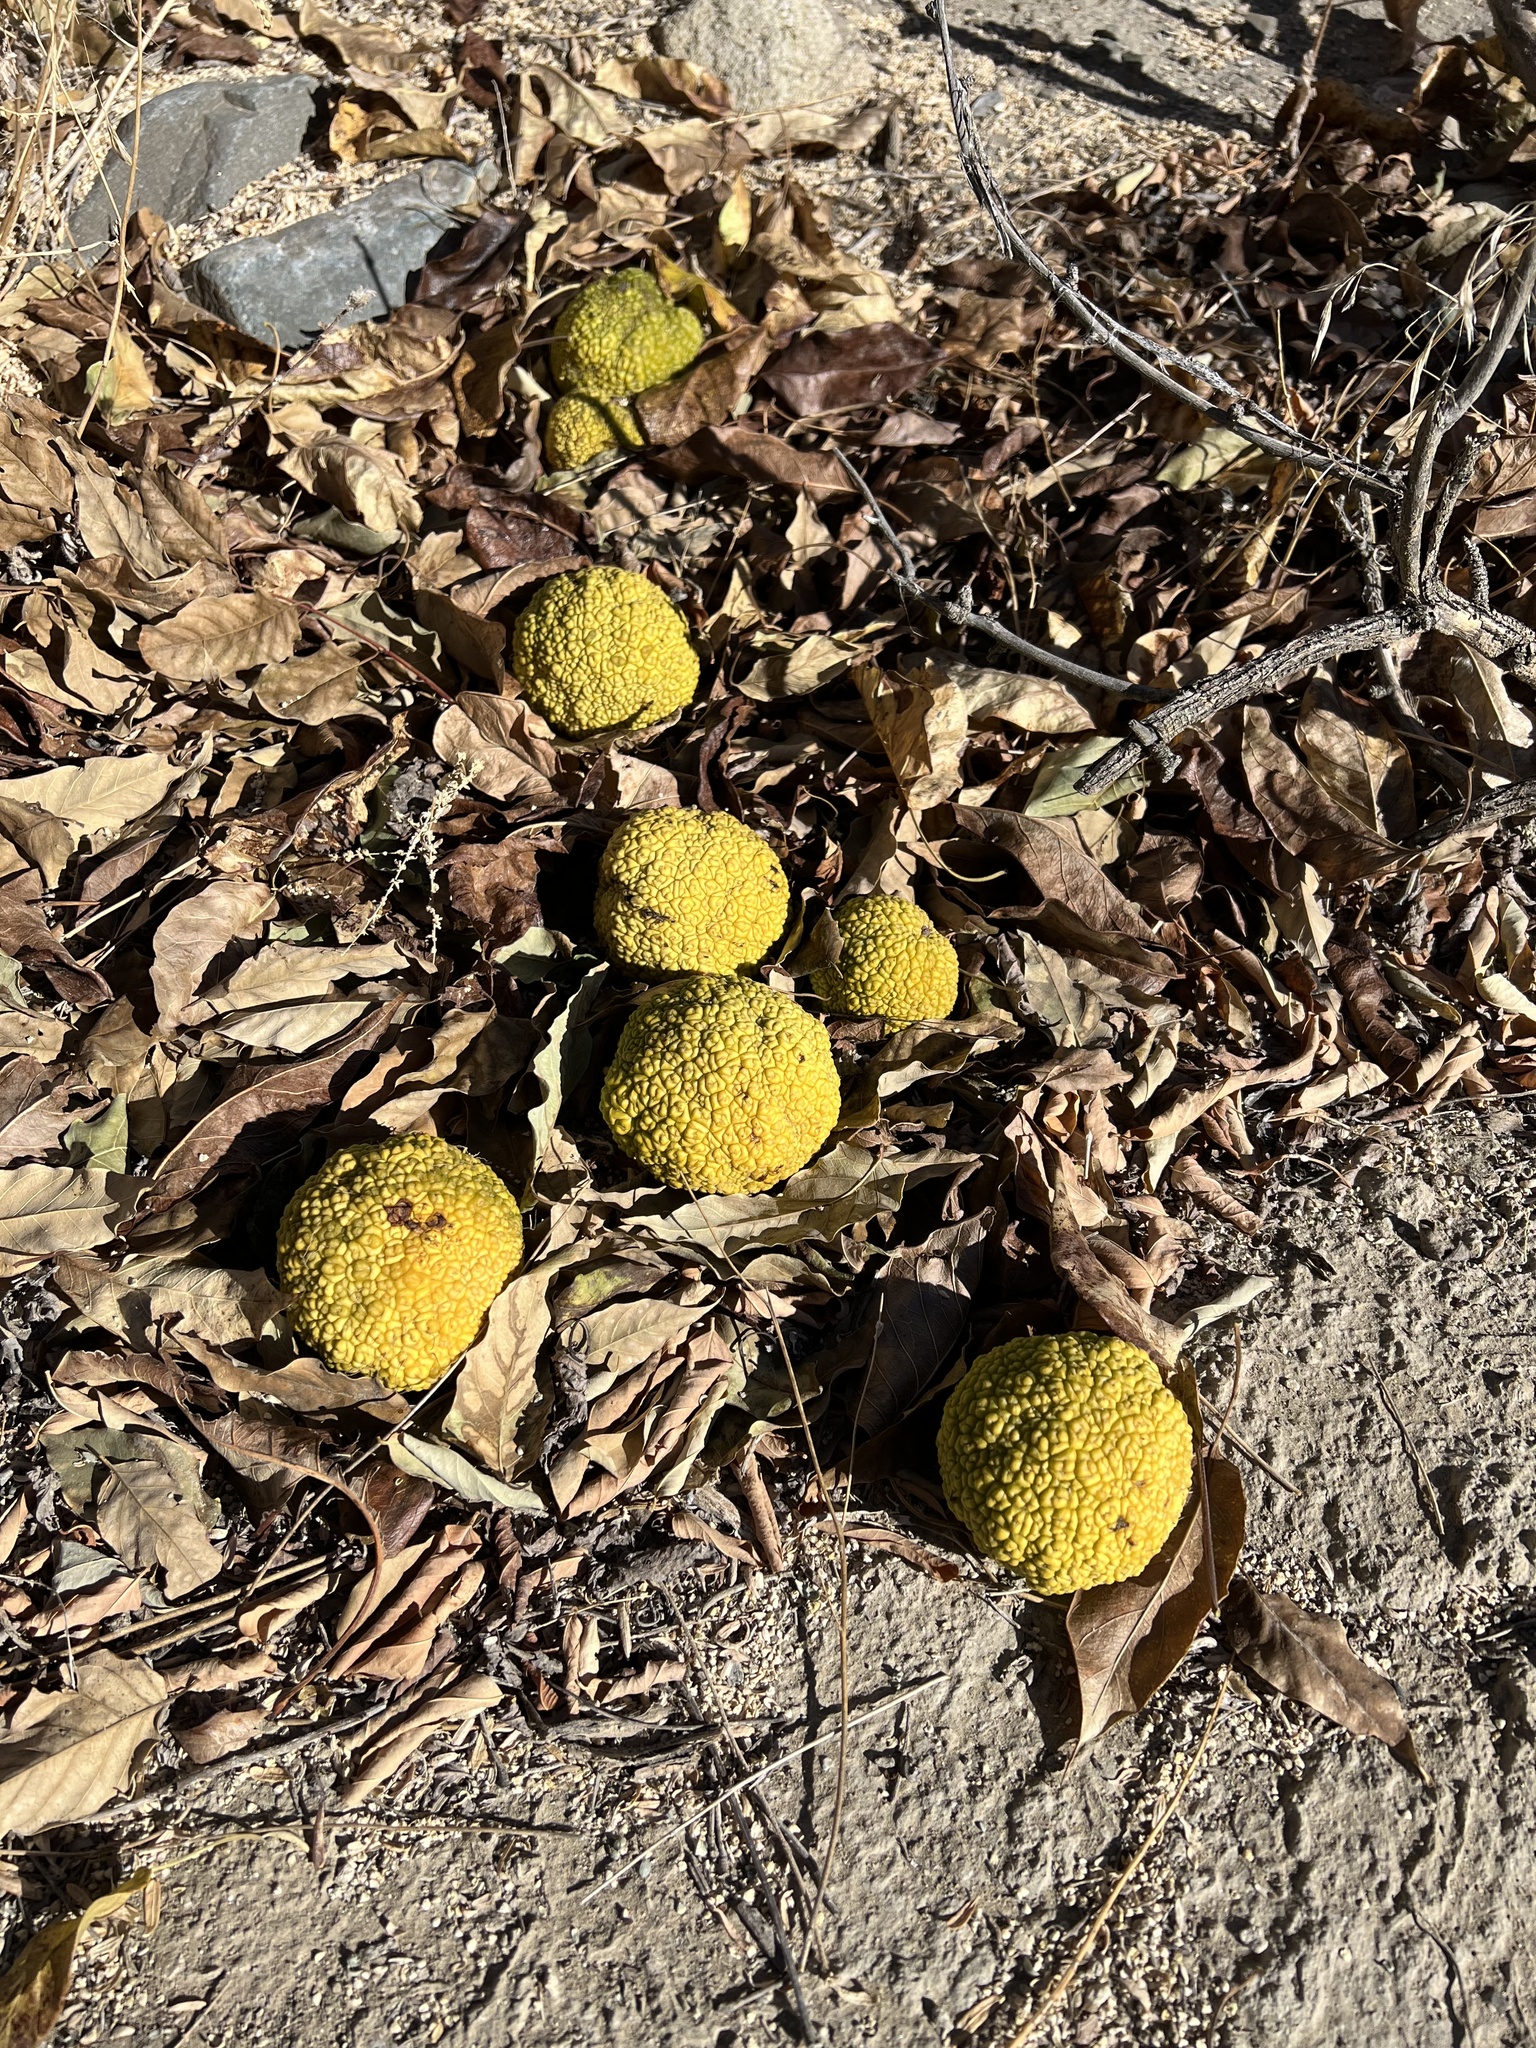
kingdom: Plantae
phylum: Tracheophyta
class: Magnoliopsida
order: Rosales
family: Moraceae
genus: Maclura
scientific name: Maclura pomifera
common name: Osage-orange
